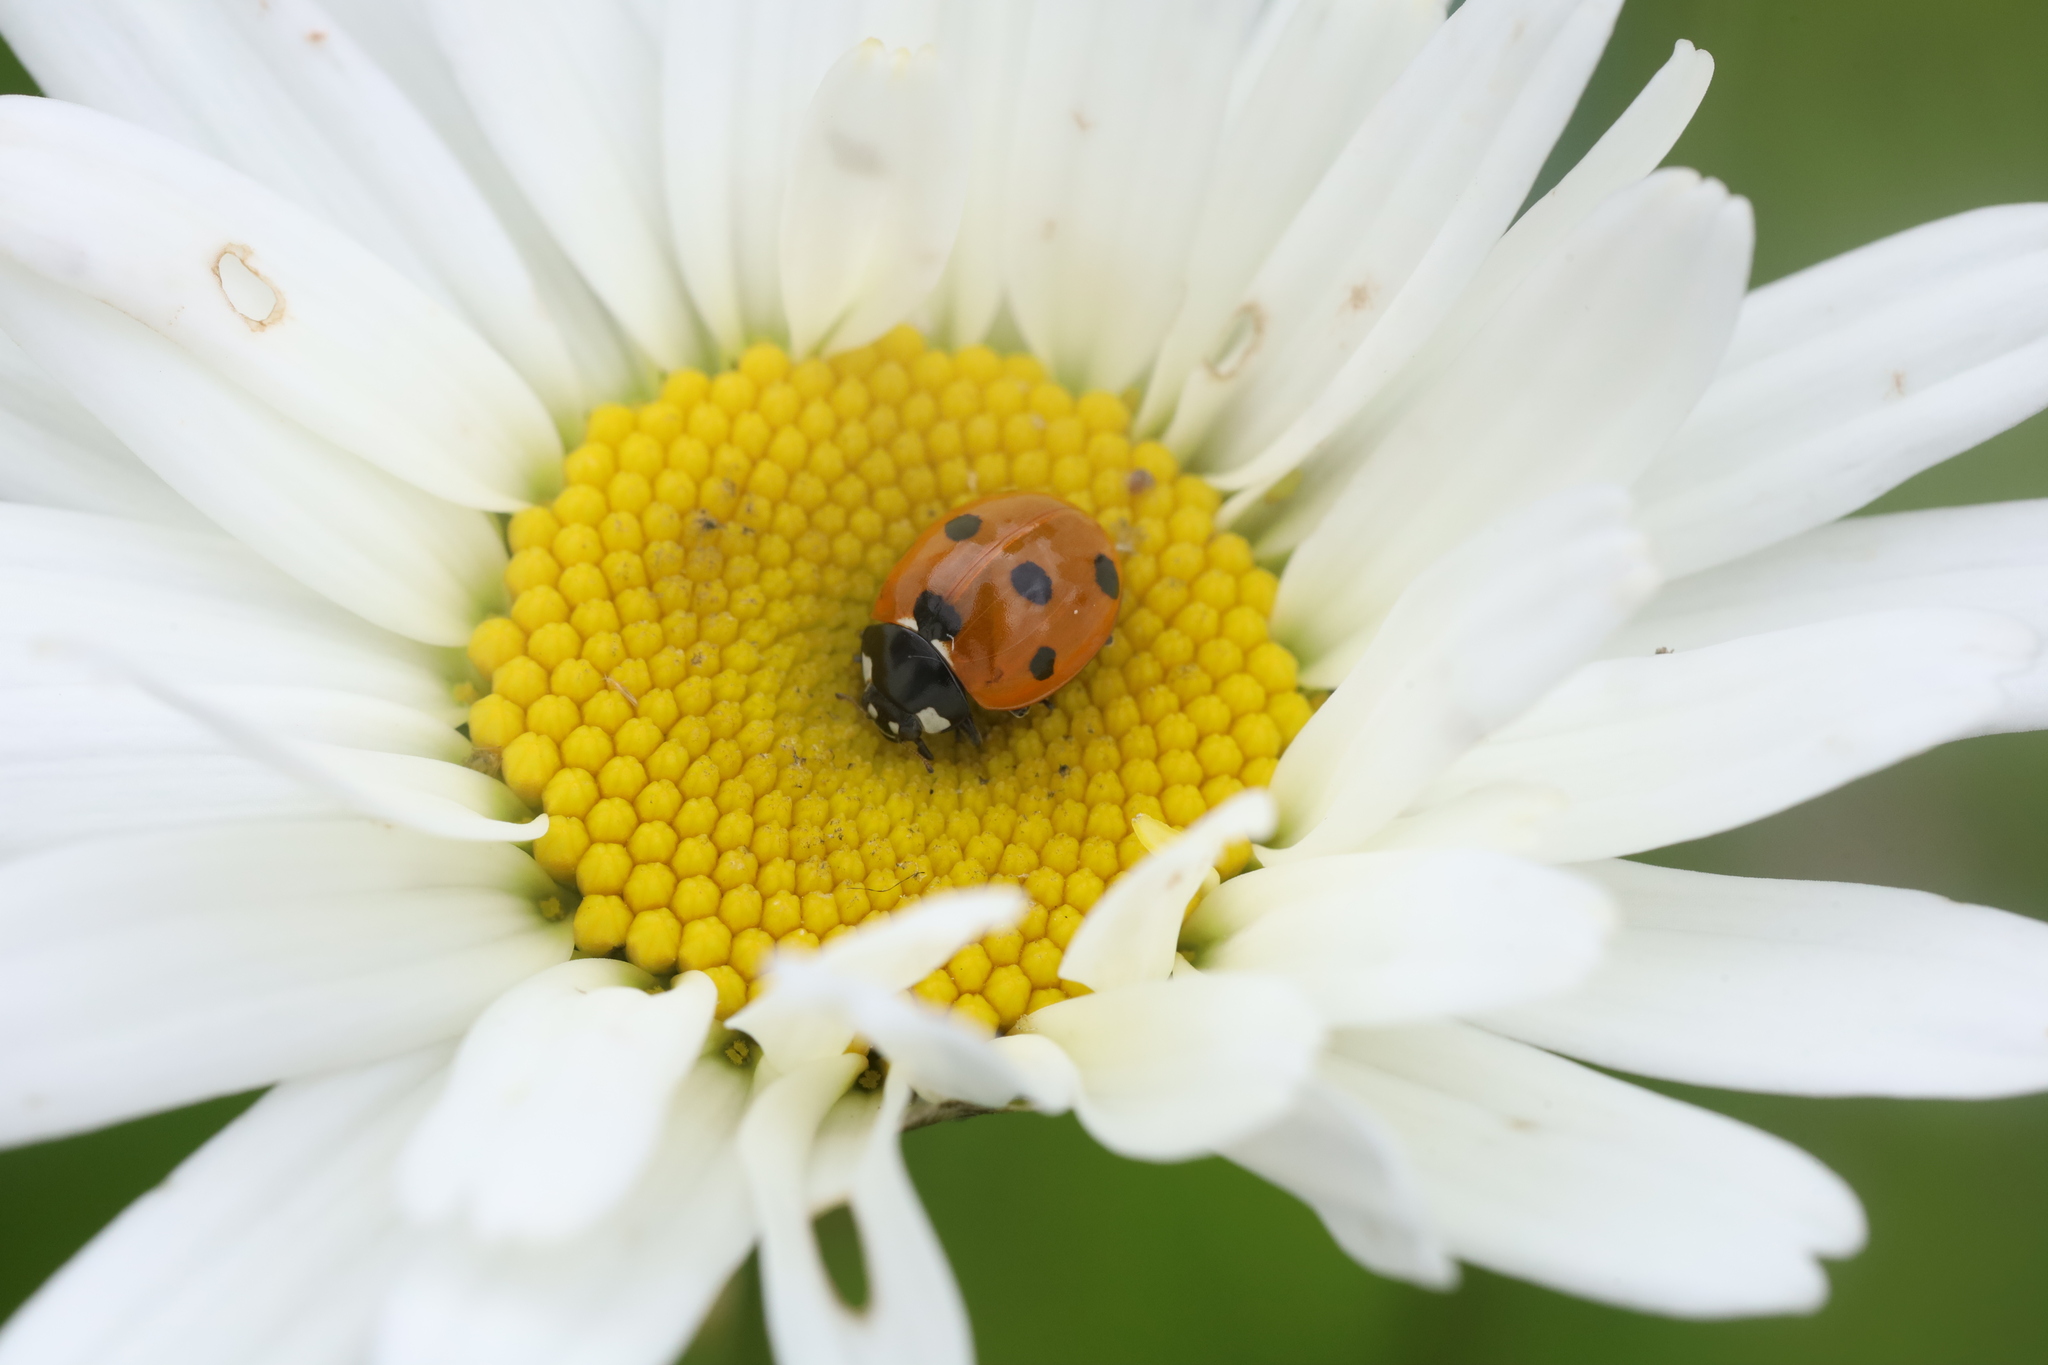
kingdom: Animalia
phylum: Arthropoda
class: Insecta
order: Coleoptera
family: Coccinellidae
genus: Coccinella
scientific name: Coccinella septempunctata
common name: Sevenspotted lady beetle
